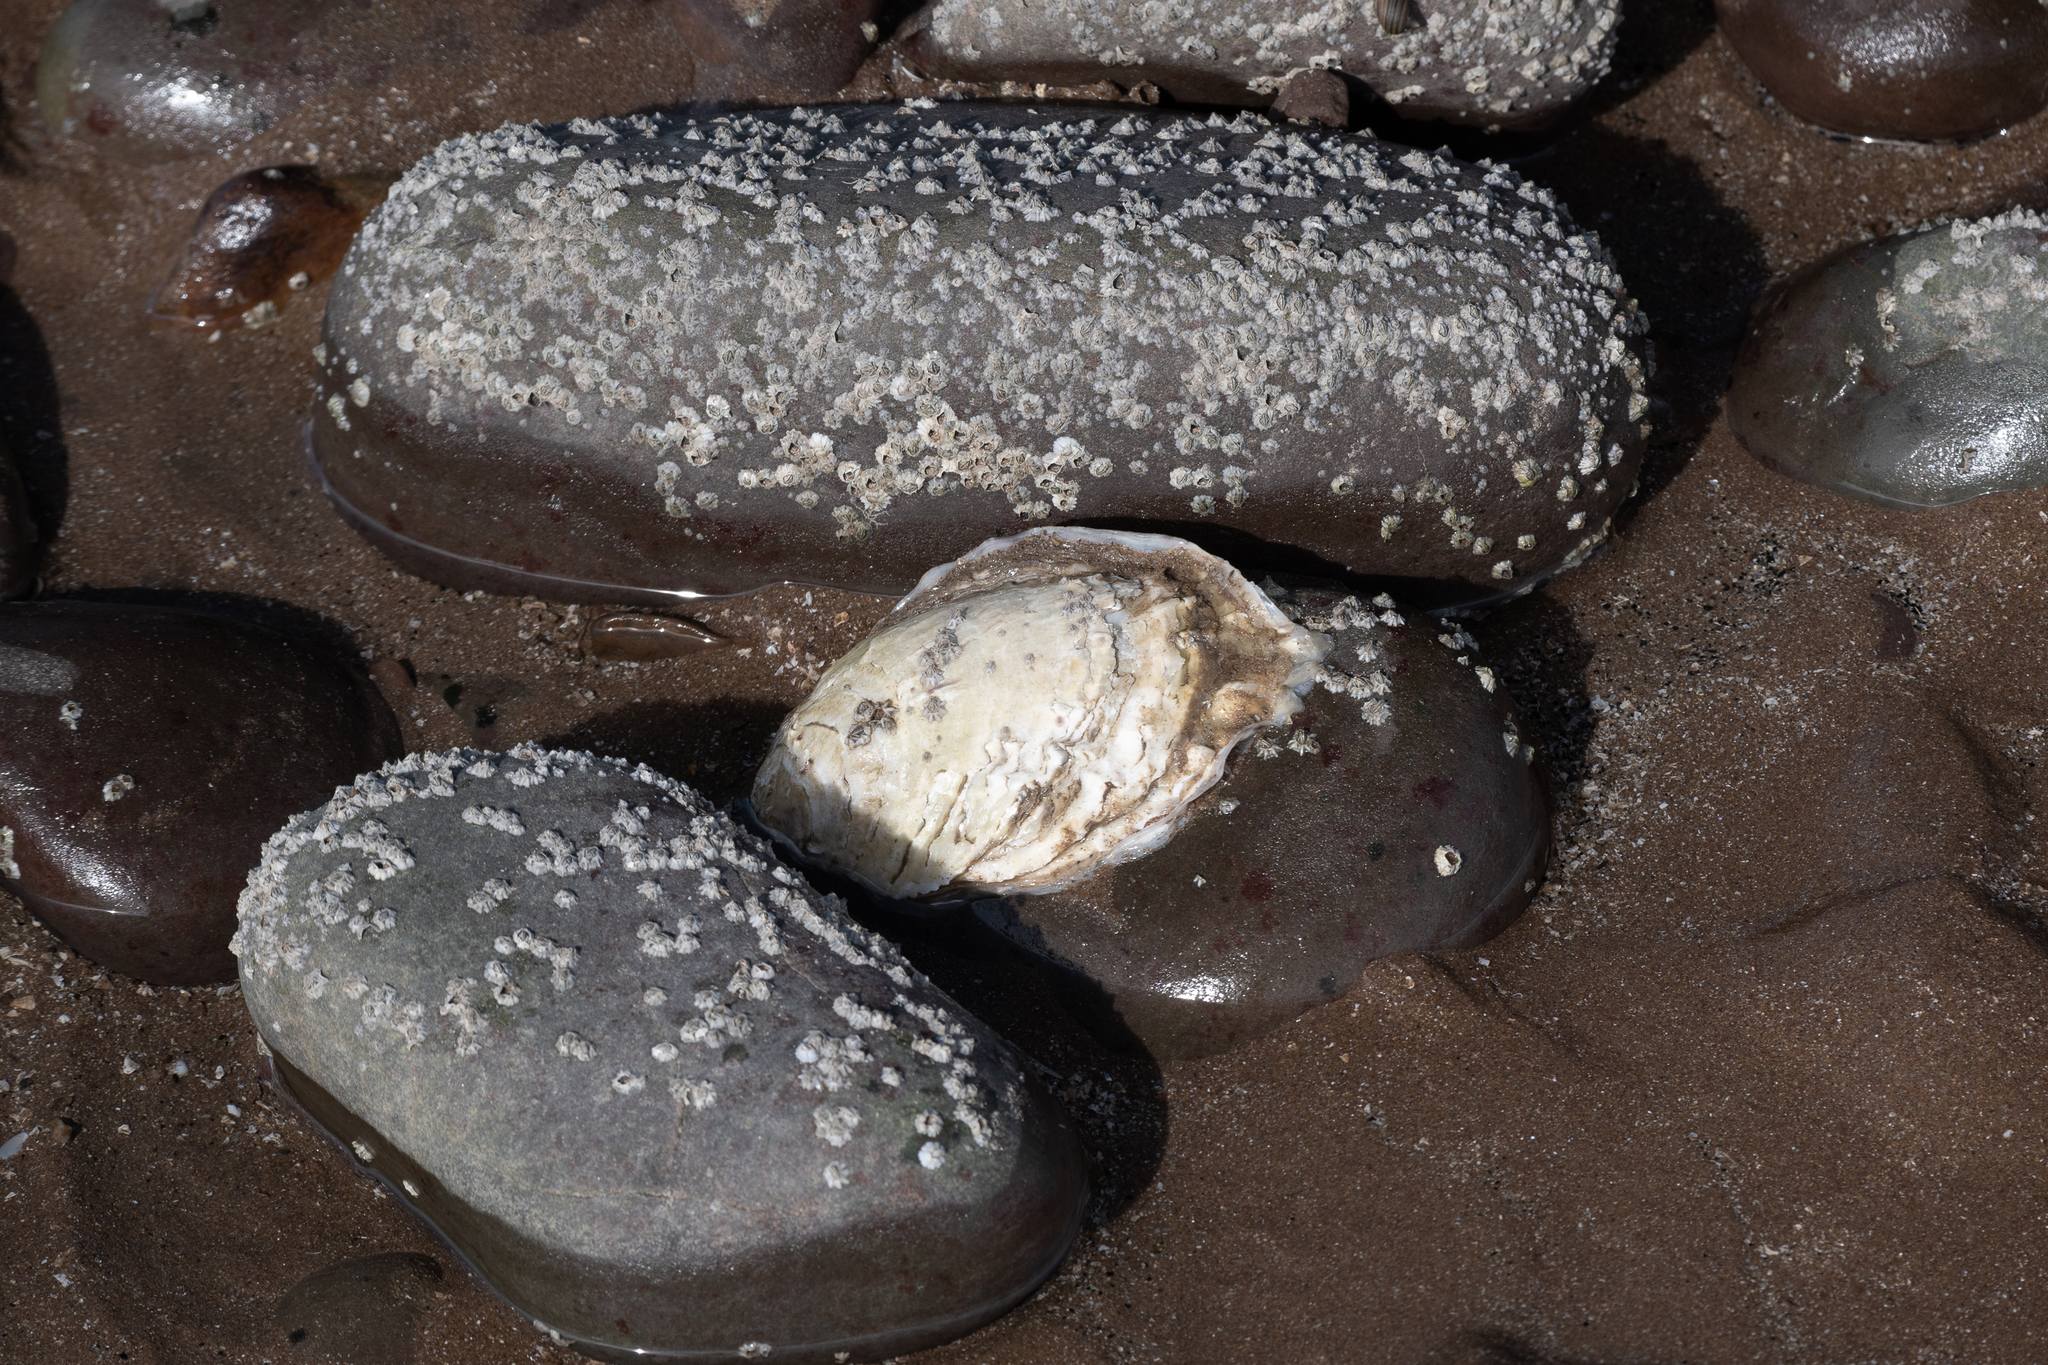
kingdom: Animalia
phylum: Mollusca
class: Bivalvia
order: Ostreida
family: Ostreidae
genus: Magallana
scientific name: Magallana gigas
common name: Pacific oyster
